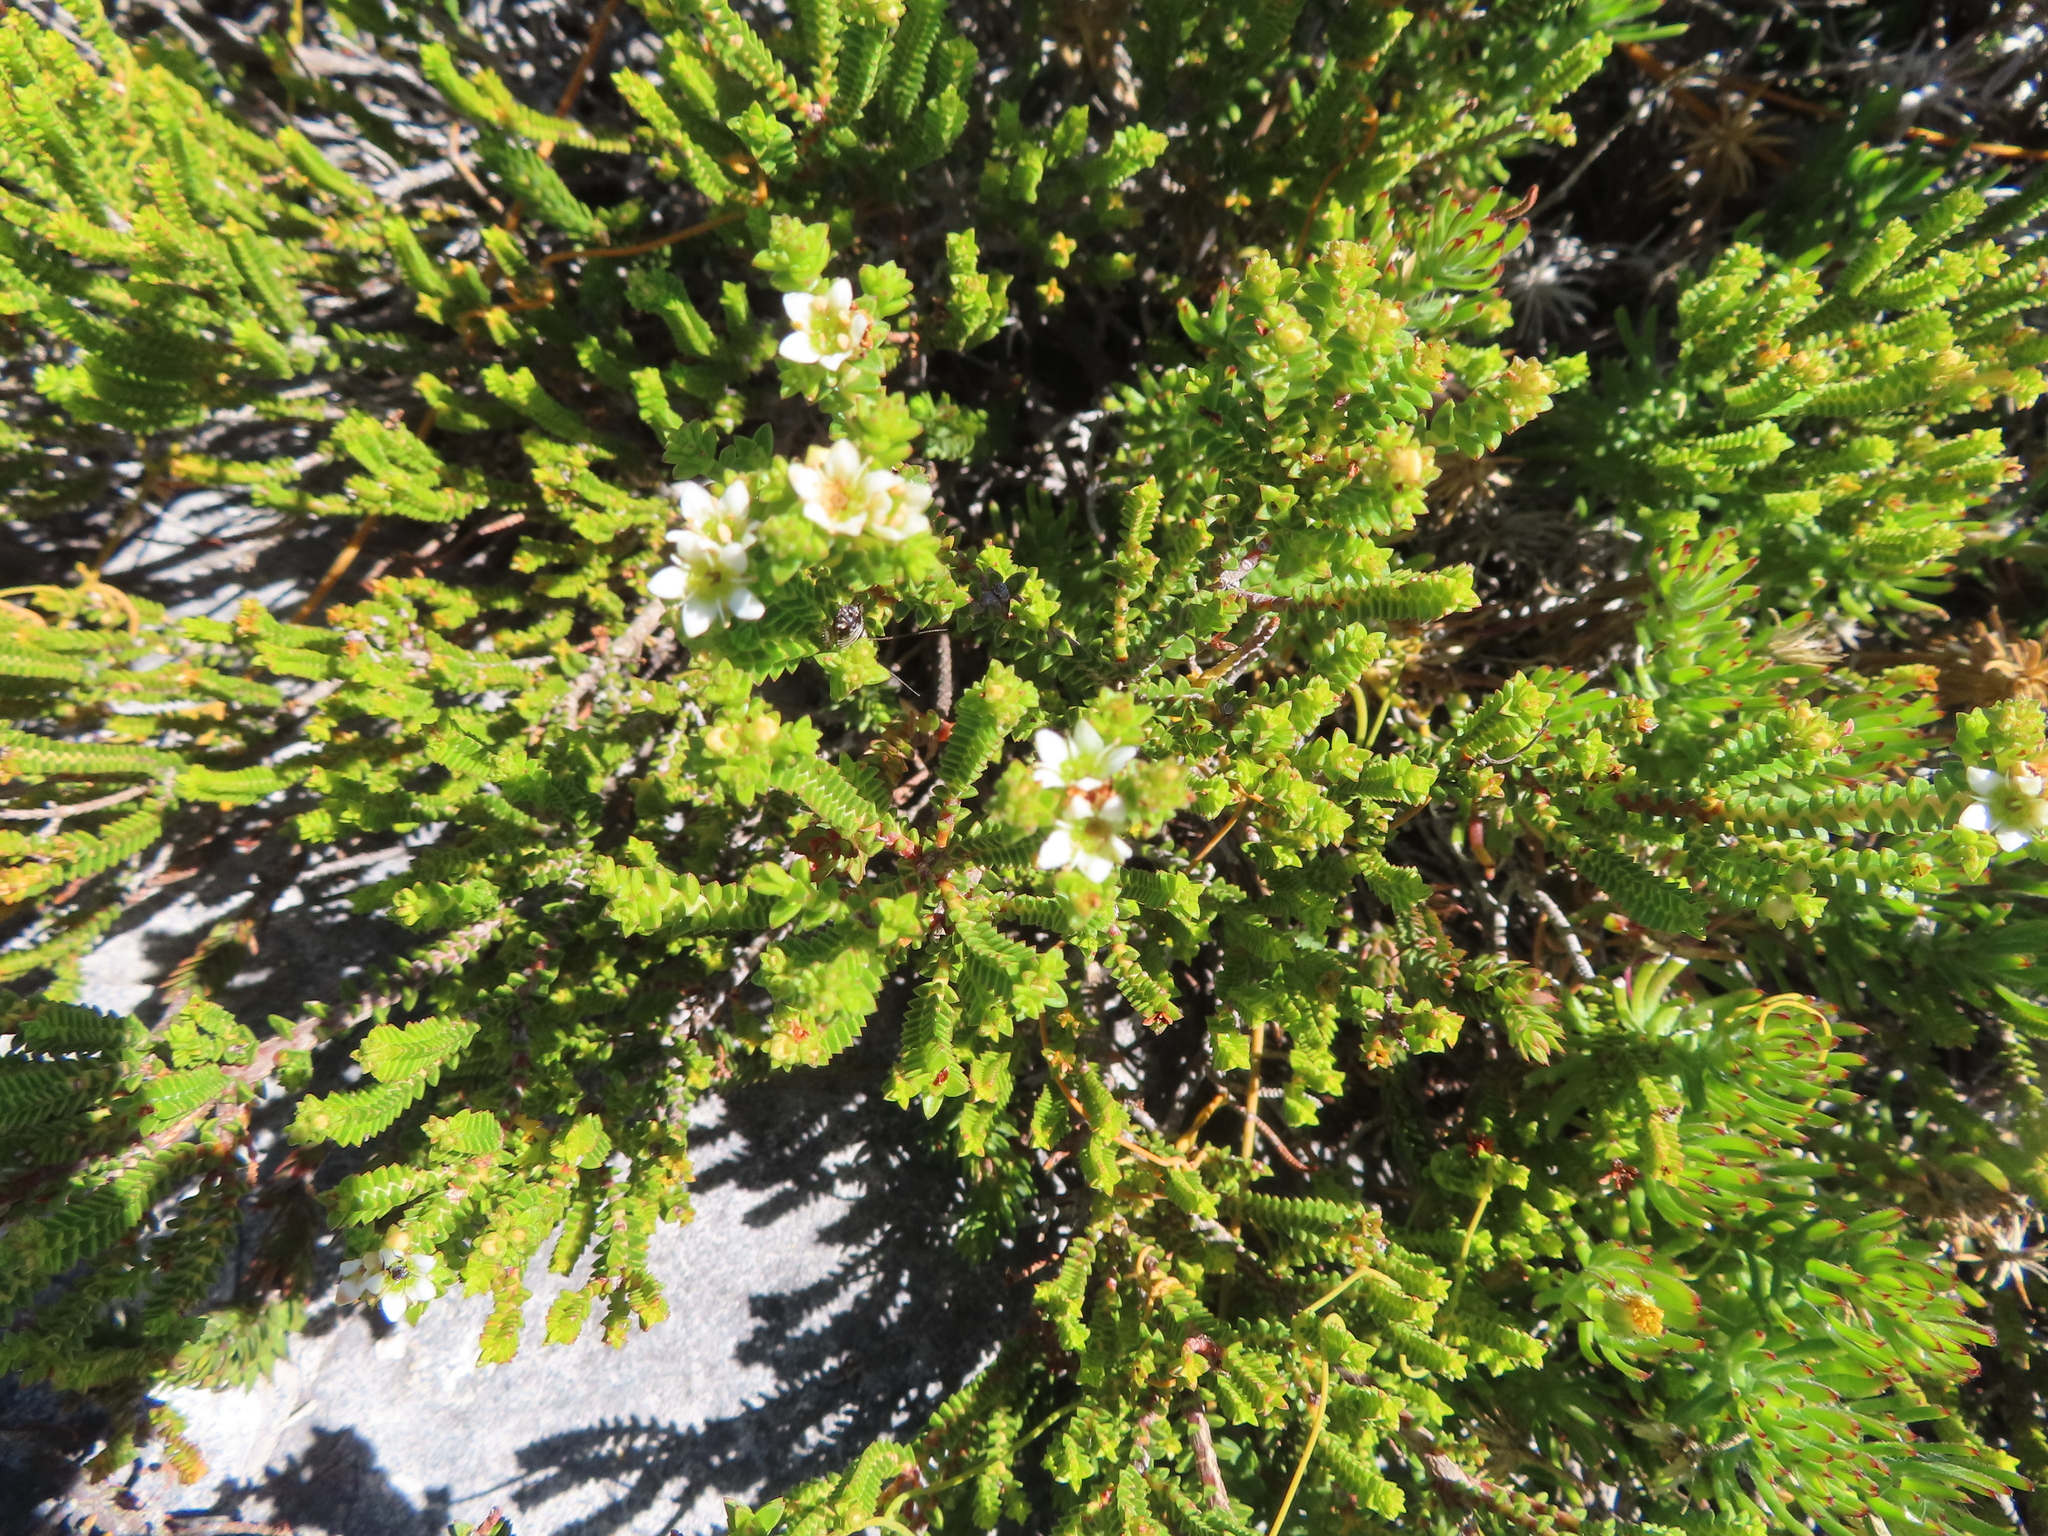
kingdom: Plantae
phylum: Tracheophyta
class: Magnoliopsida
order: Sapindales
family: Rutaceae
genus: Diosma
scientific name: Diosma oppositifolia
